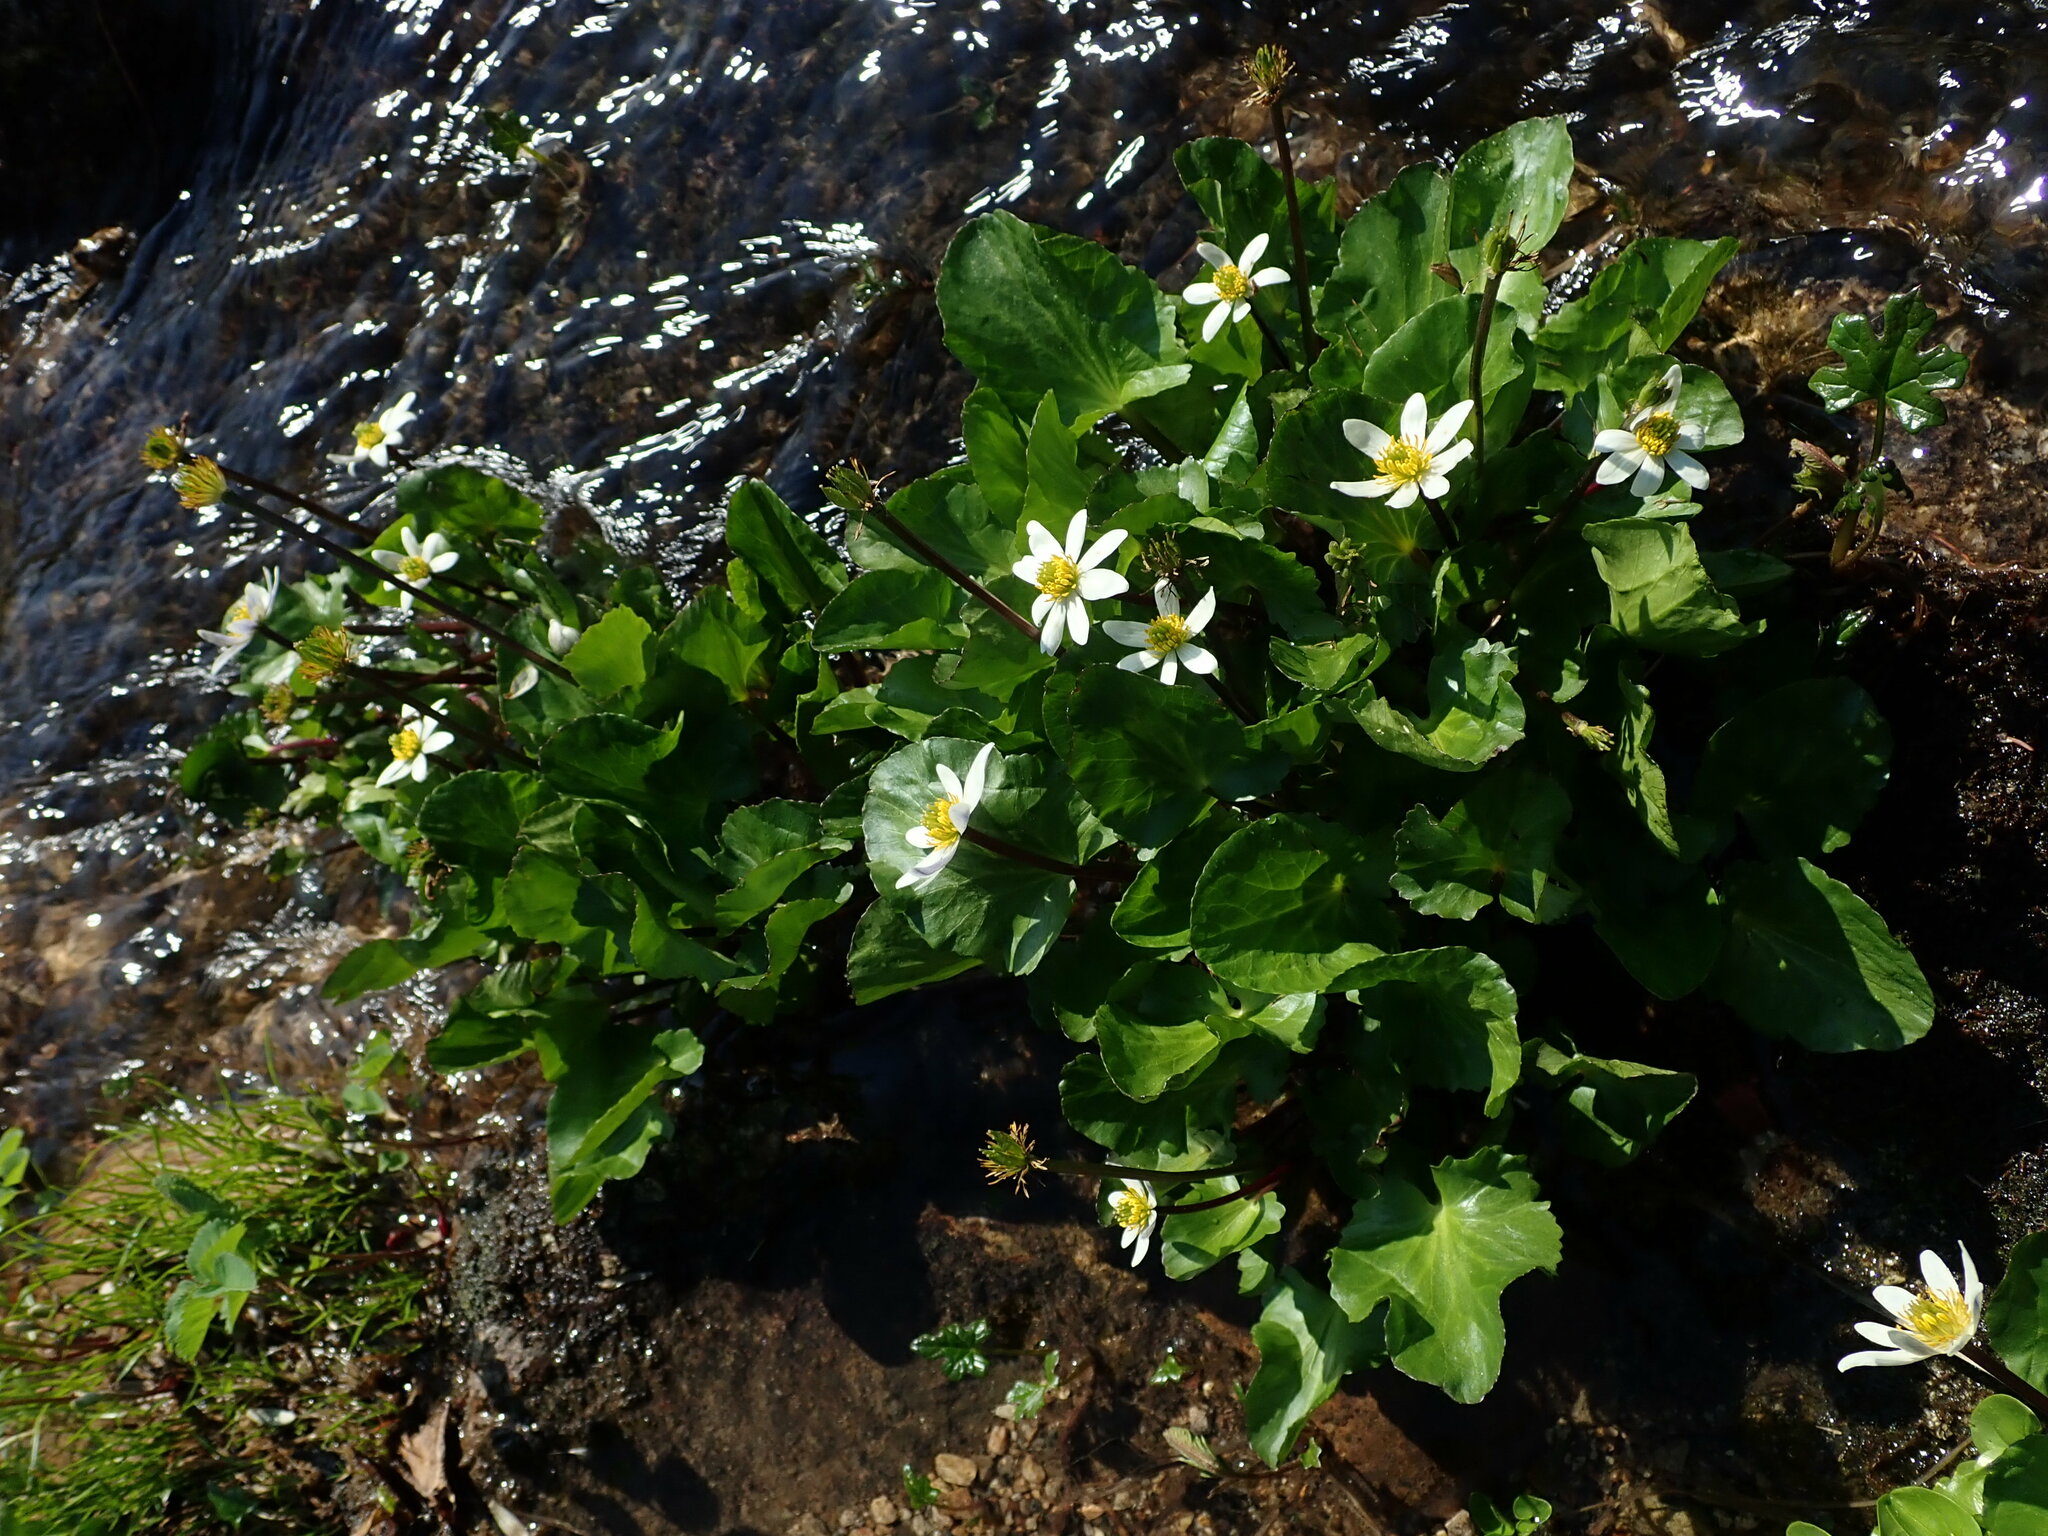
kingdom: Plantae
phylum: Tracheophyta
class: Magnoliopsida
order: Ranunculales
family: Ranunculaceae
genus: Caltha
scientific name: Caltha leptosepala
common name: Elkslip
